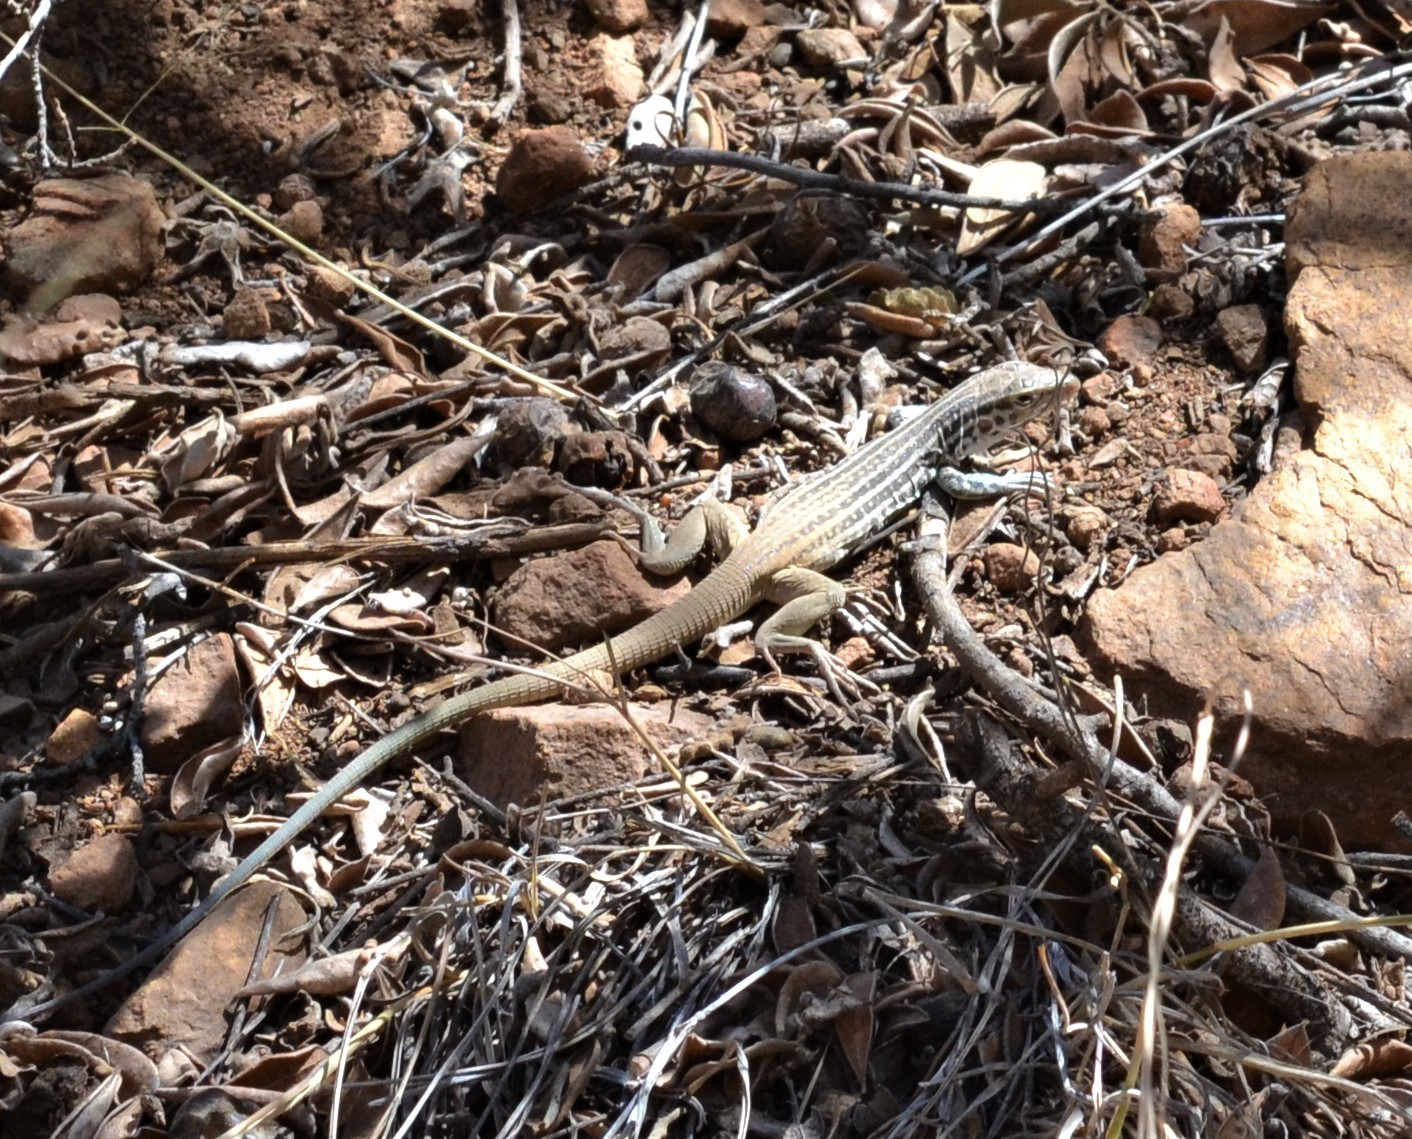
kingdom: Animalia
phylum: Chordata
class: Squamata
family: Teiidae
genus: Aspidoscelis
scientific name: Aspidoscelis scalaris
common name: Rusty-rumped whiptail
